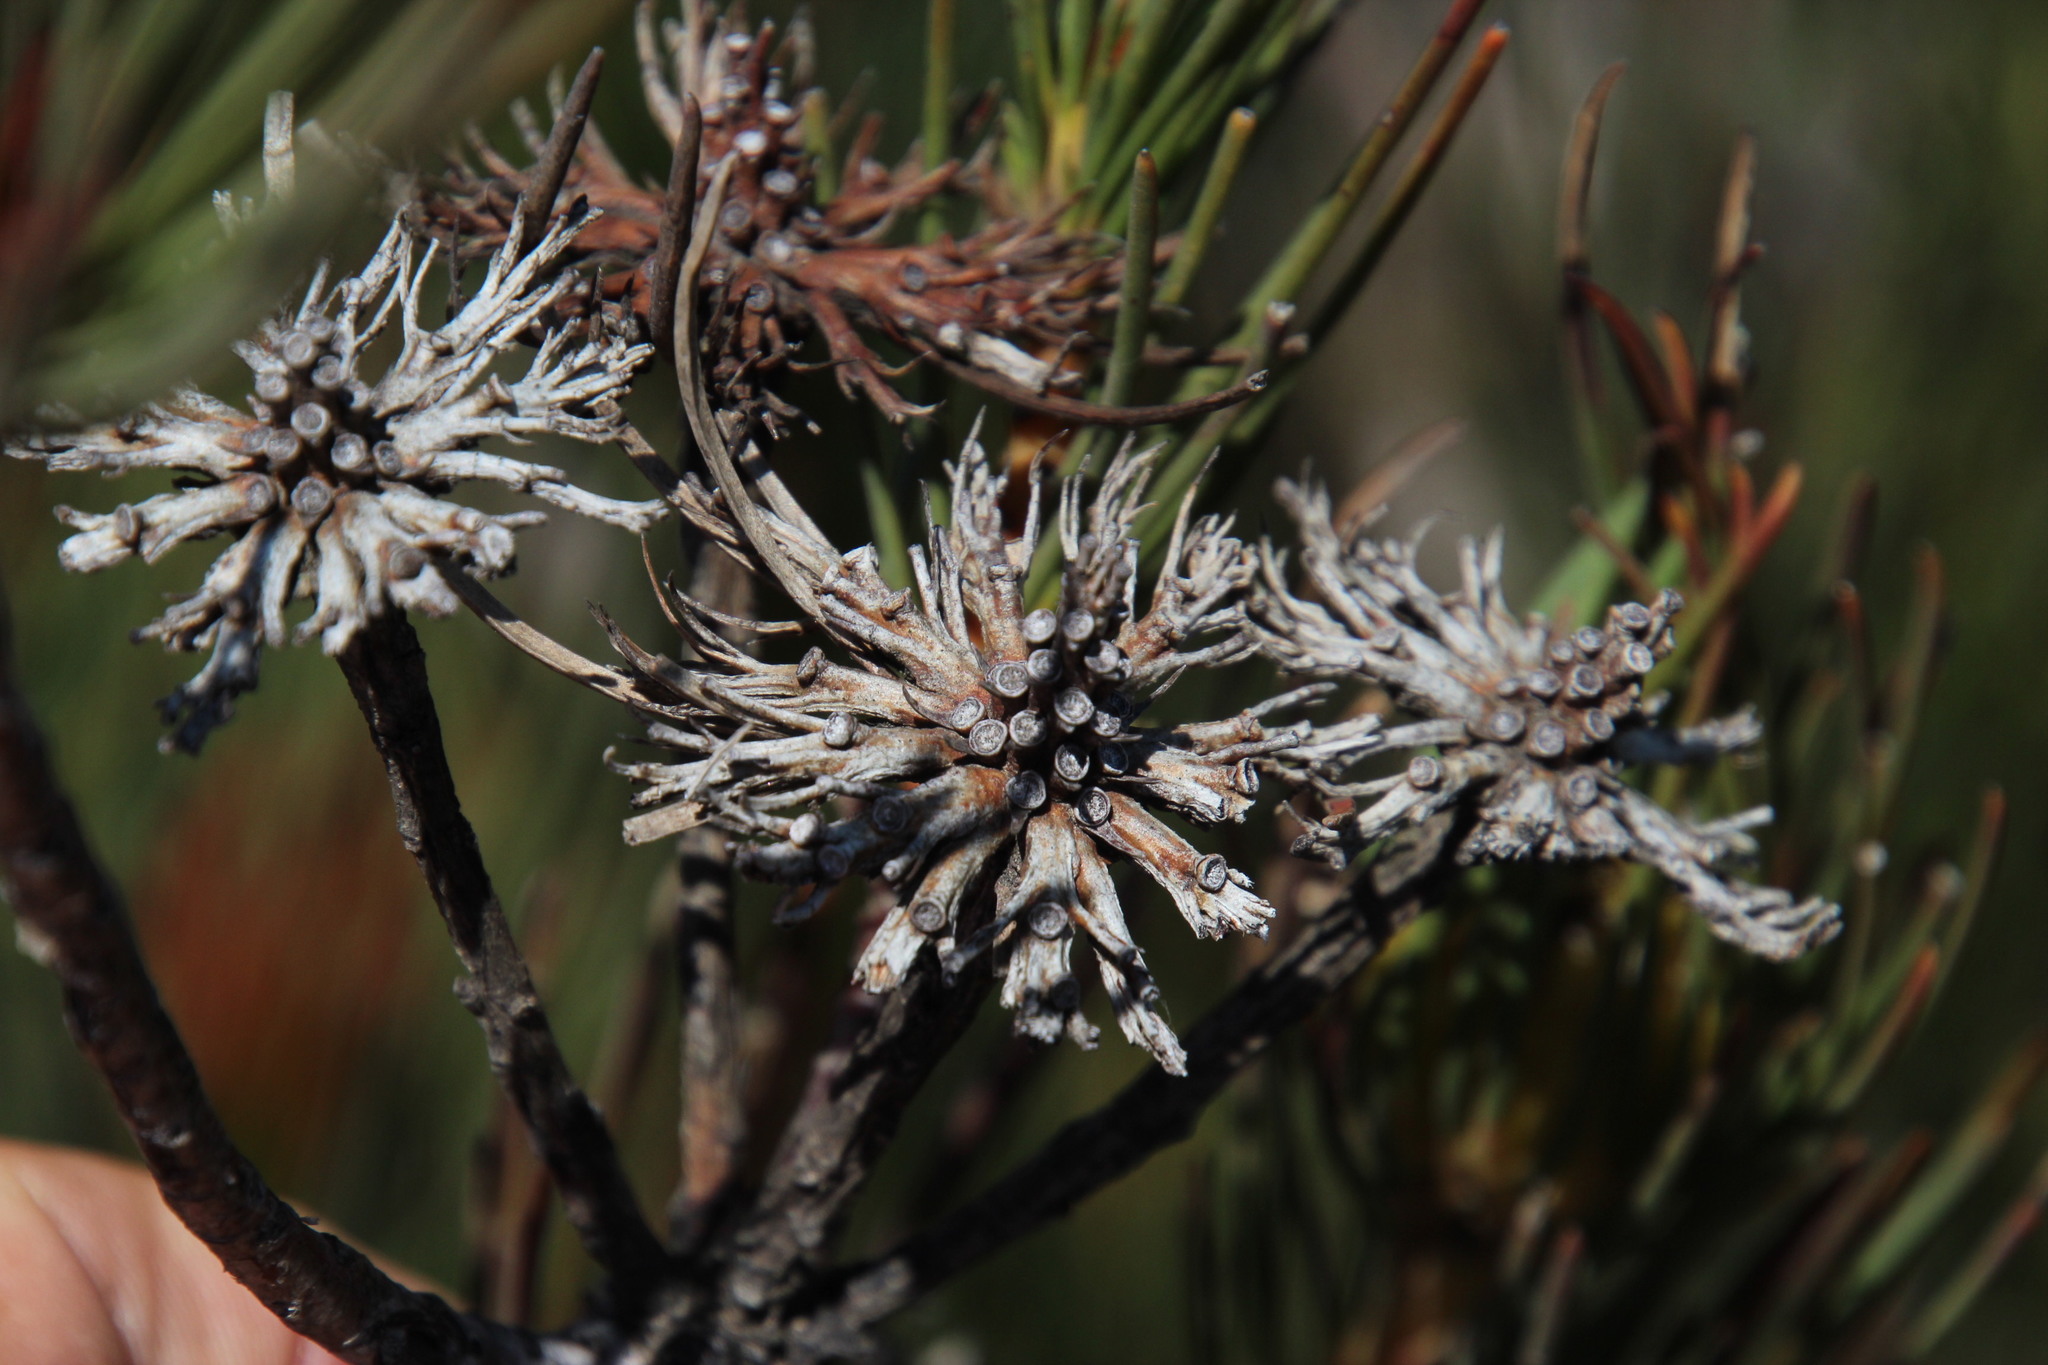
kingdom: Plantae
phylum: Tracheophyta
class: Magnoliopsida
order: Proteales
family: Proteaceae
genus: Aulax
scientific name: Aulax pallasia
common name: Needle-leaf featherbush
